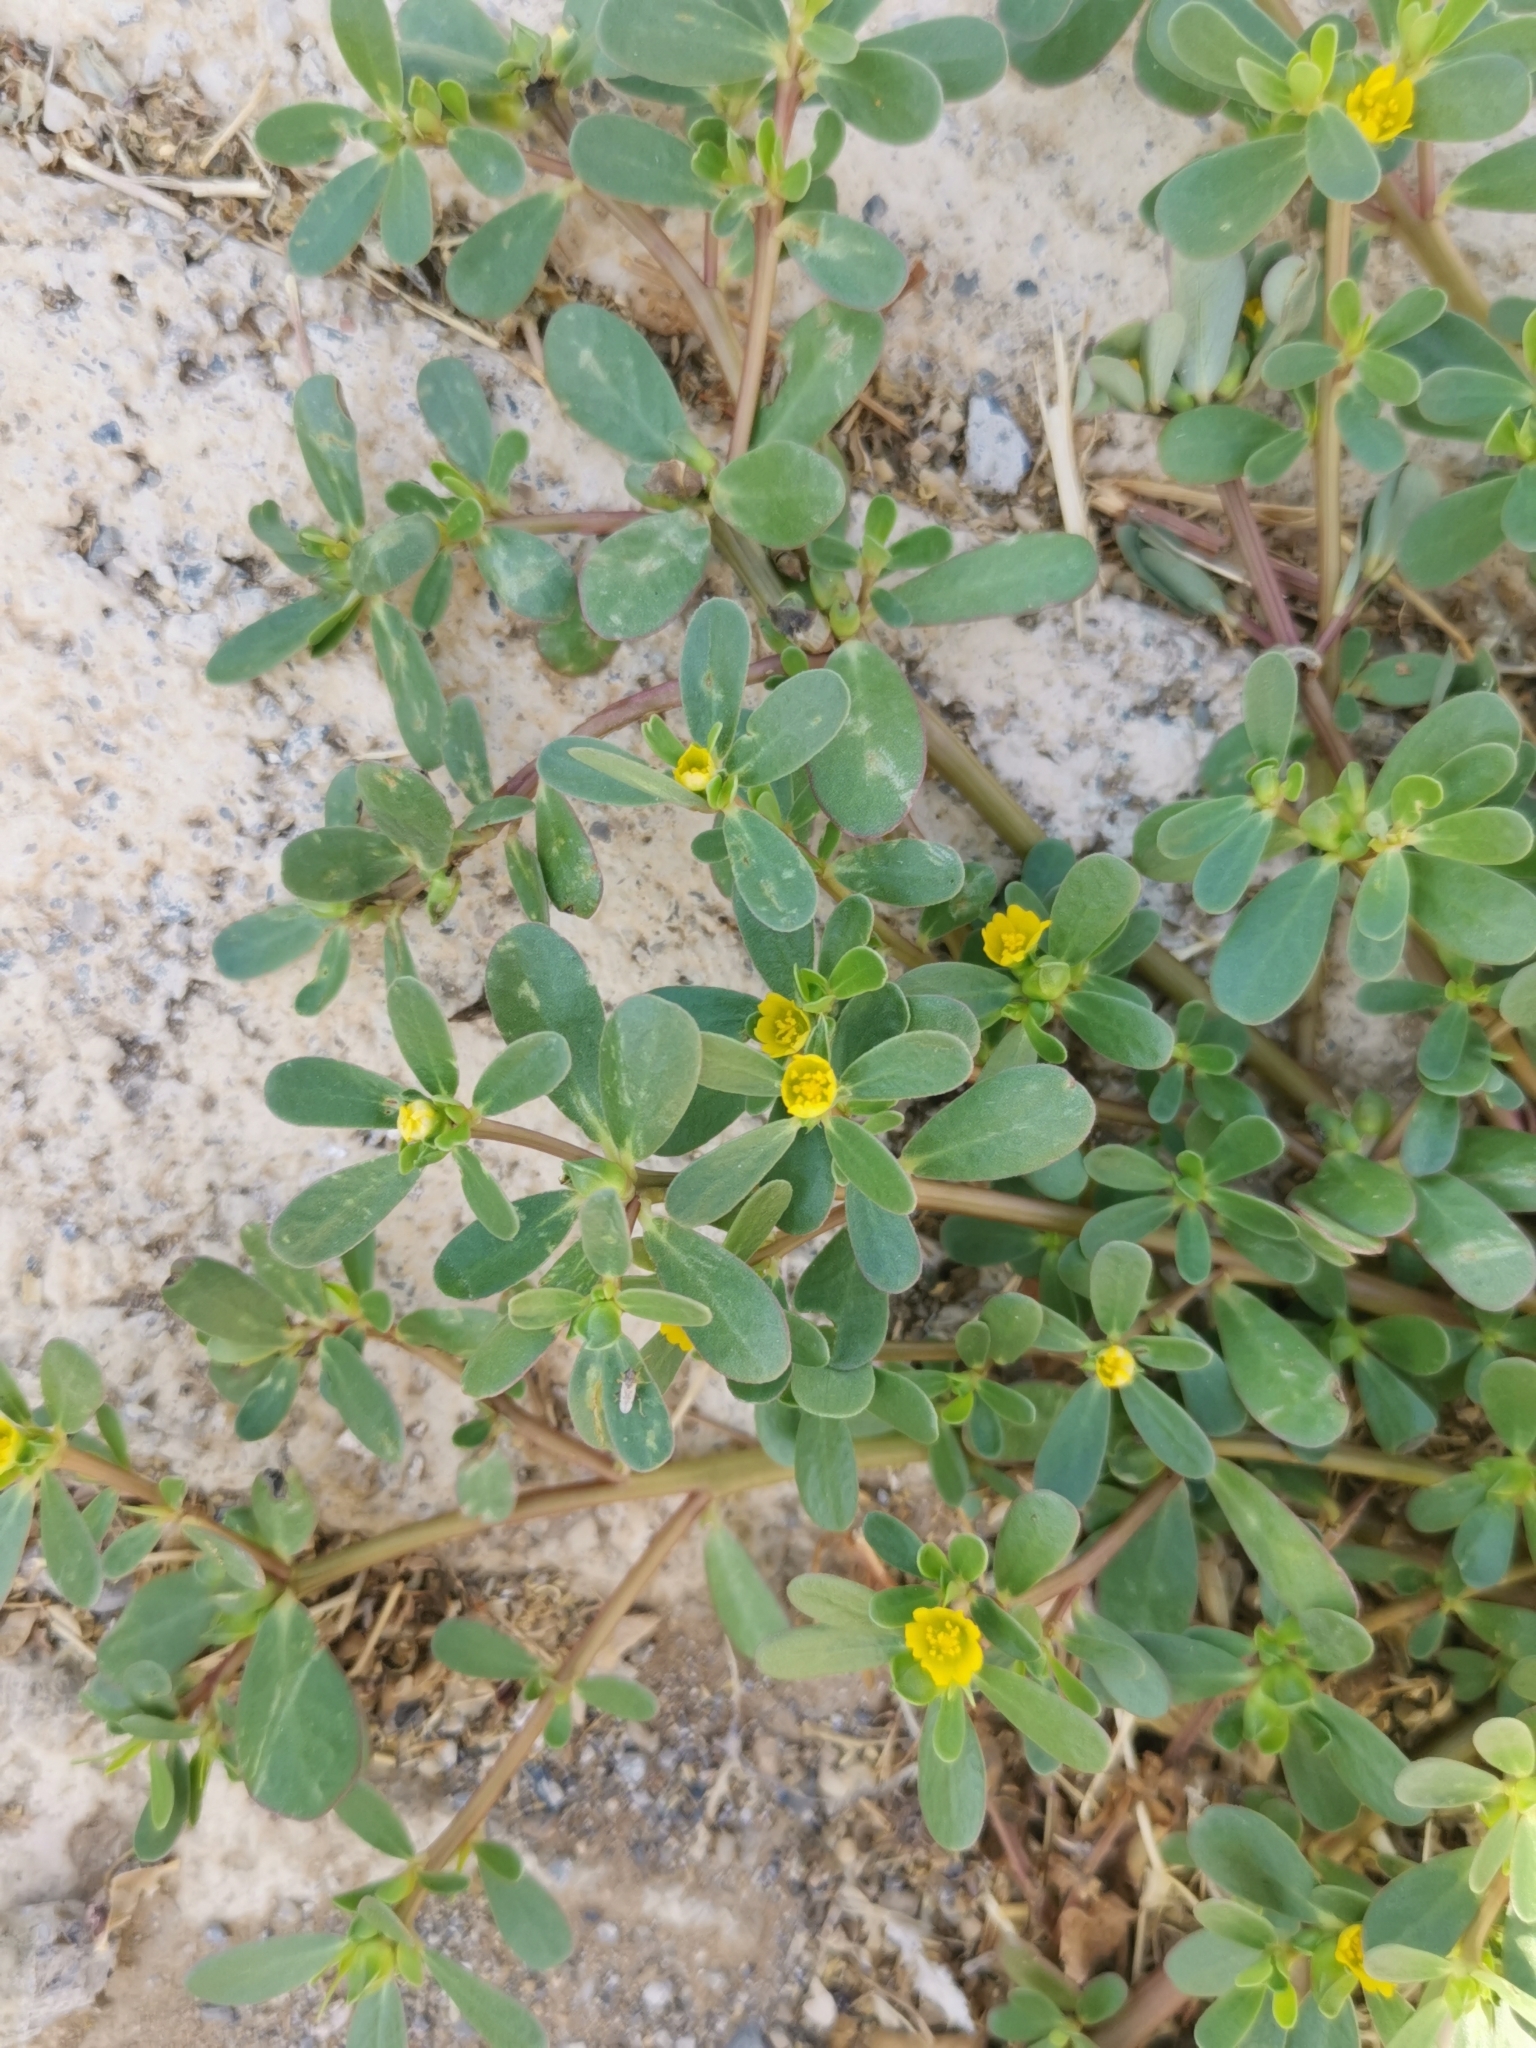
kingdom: Plantae
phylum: Tracheophyta
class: Magnoliopsida
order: Caryophyllales
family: Portulacaceae
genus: Portulaca
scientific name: Portulaca oleracea
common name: Common purslane
